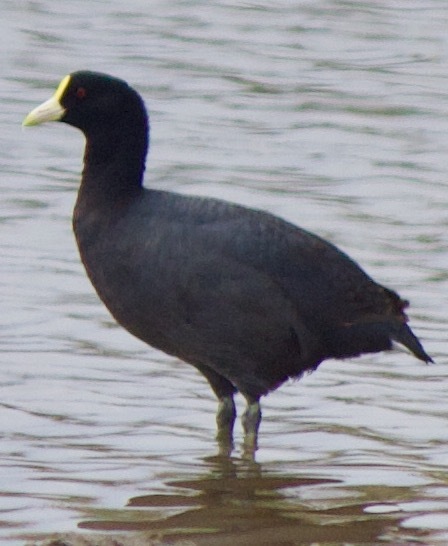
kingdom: Animalia
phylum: Chordata
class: Aves
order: Gruiformes
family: Rallidae
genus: Fulica
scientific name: Fulica leucoptera
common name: White-winged coot
